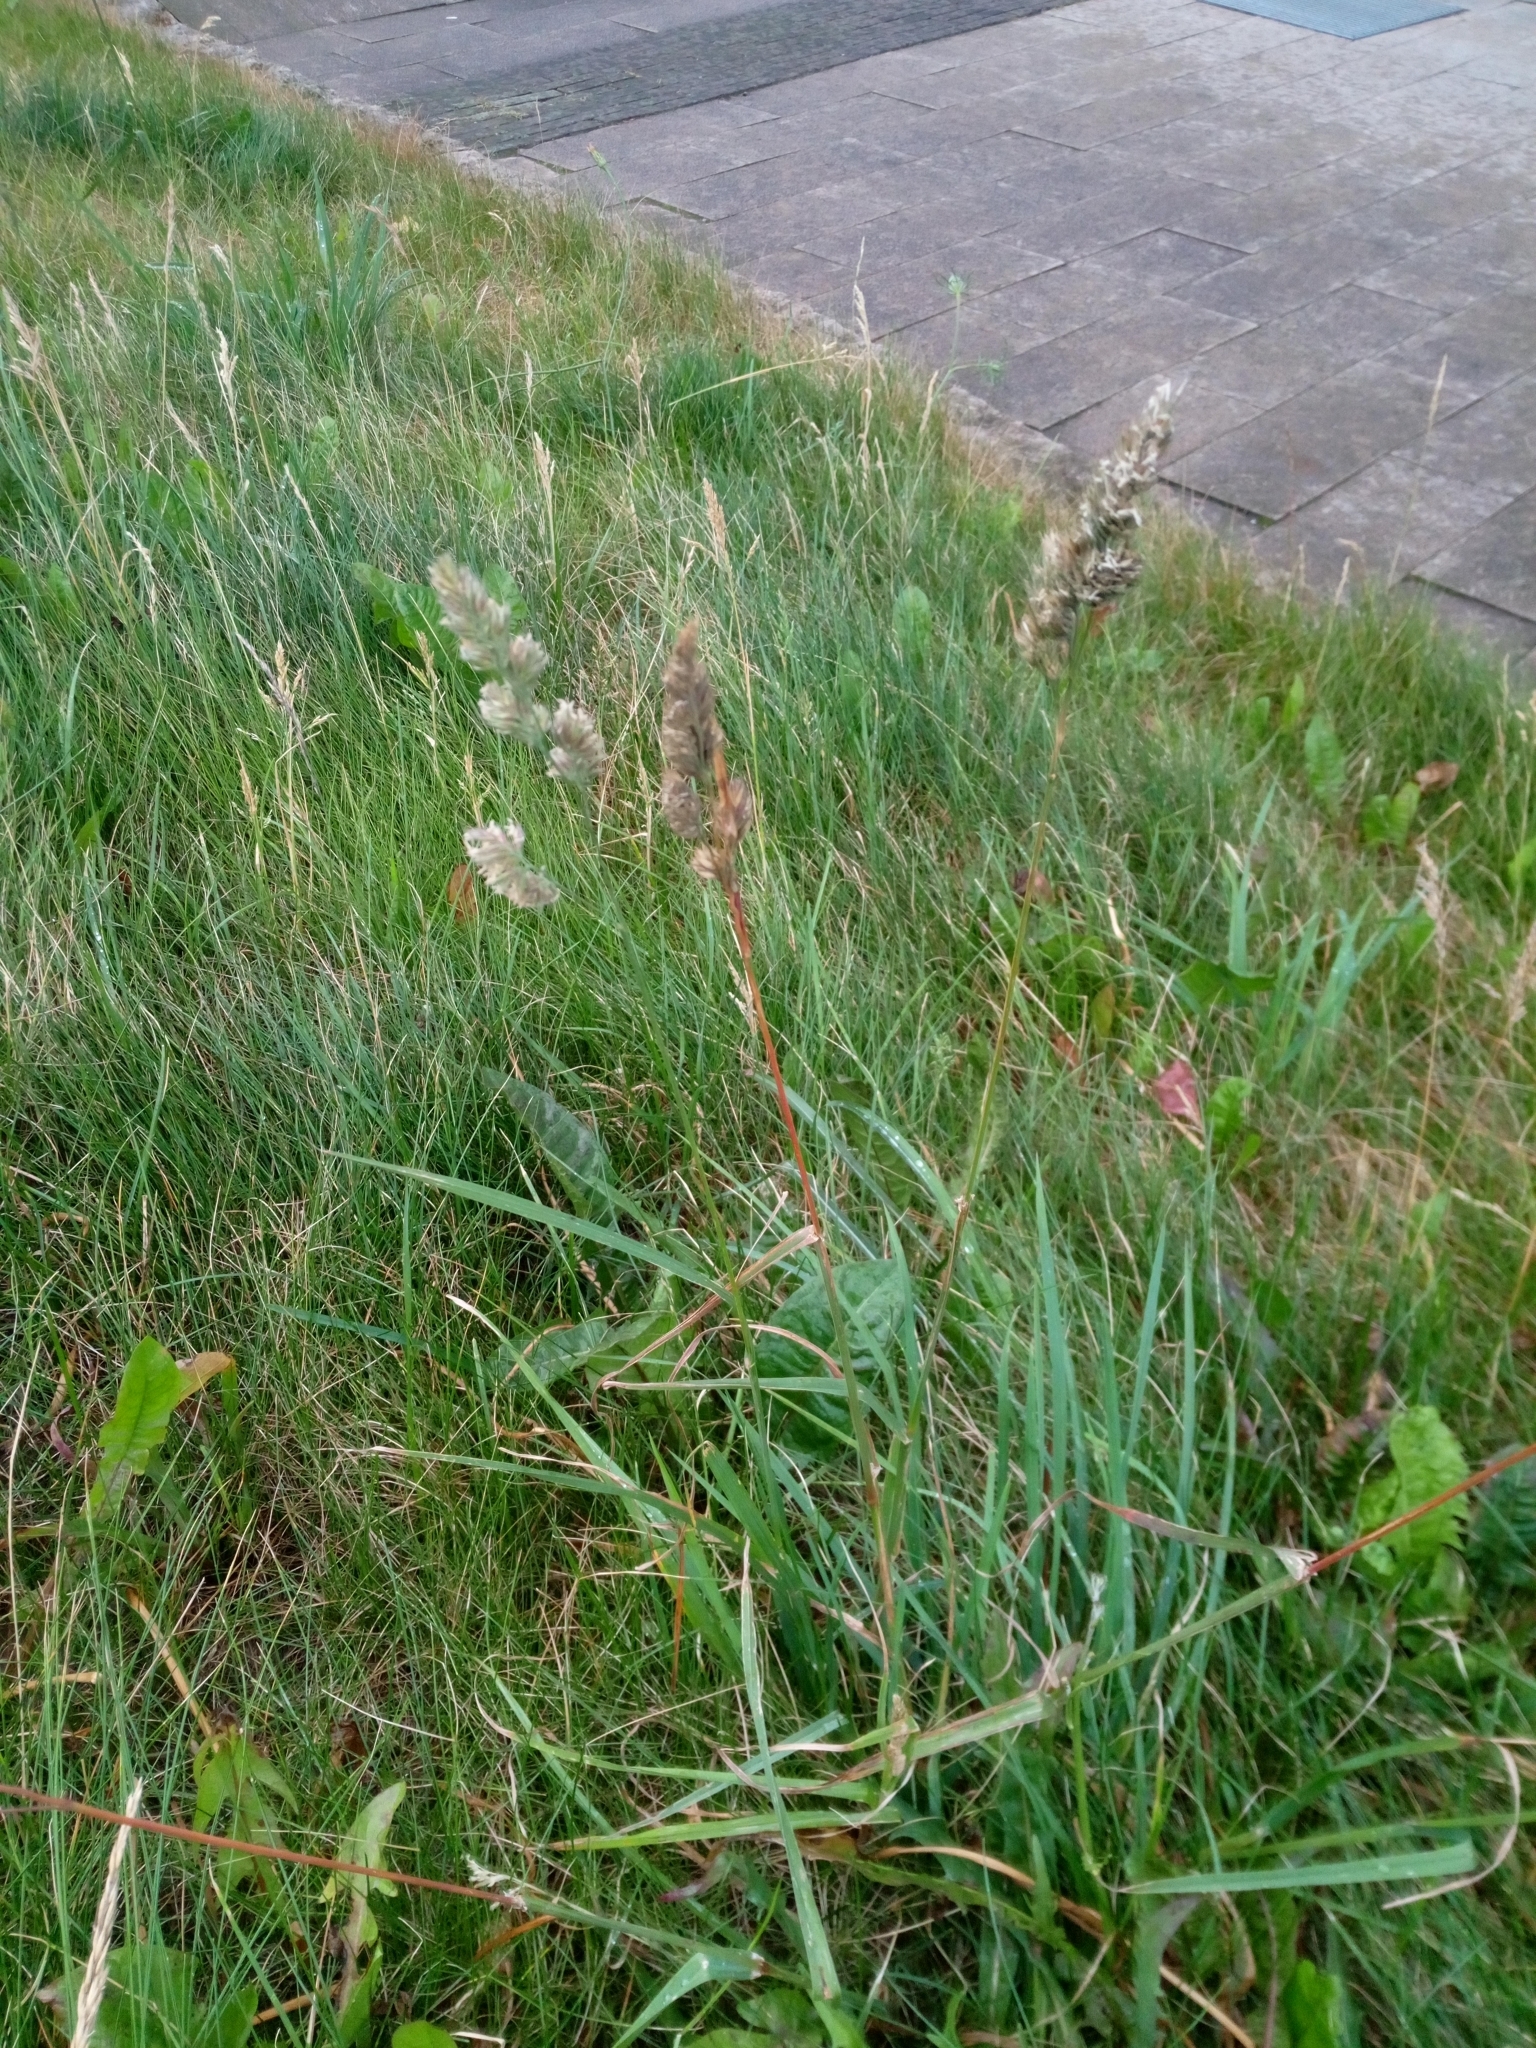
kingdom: Plantae
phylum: Tracheophyta
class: Liliopsida
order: Poales
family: Poaceae
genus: Dactylis
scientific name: Dactylis glomerata
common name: Orchardgrass
